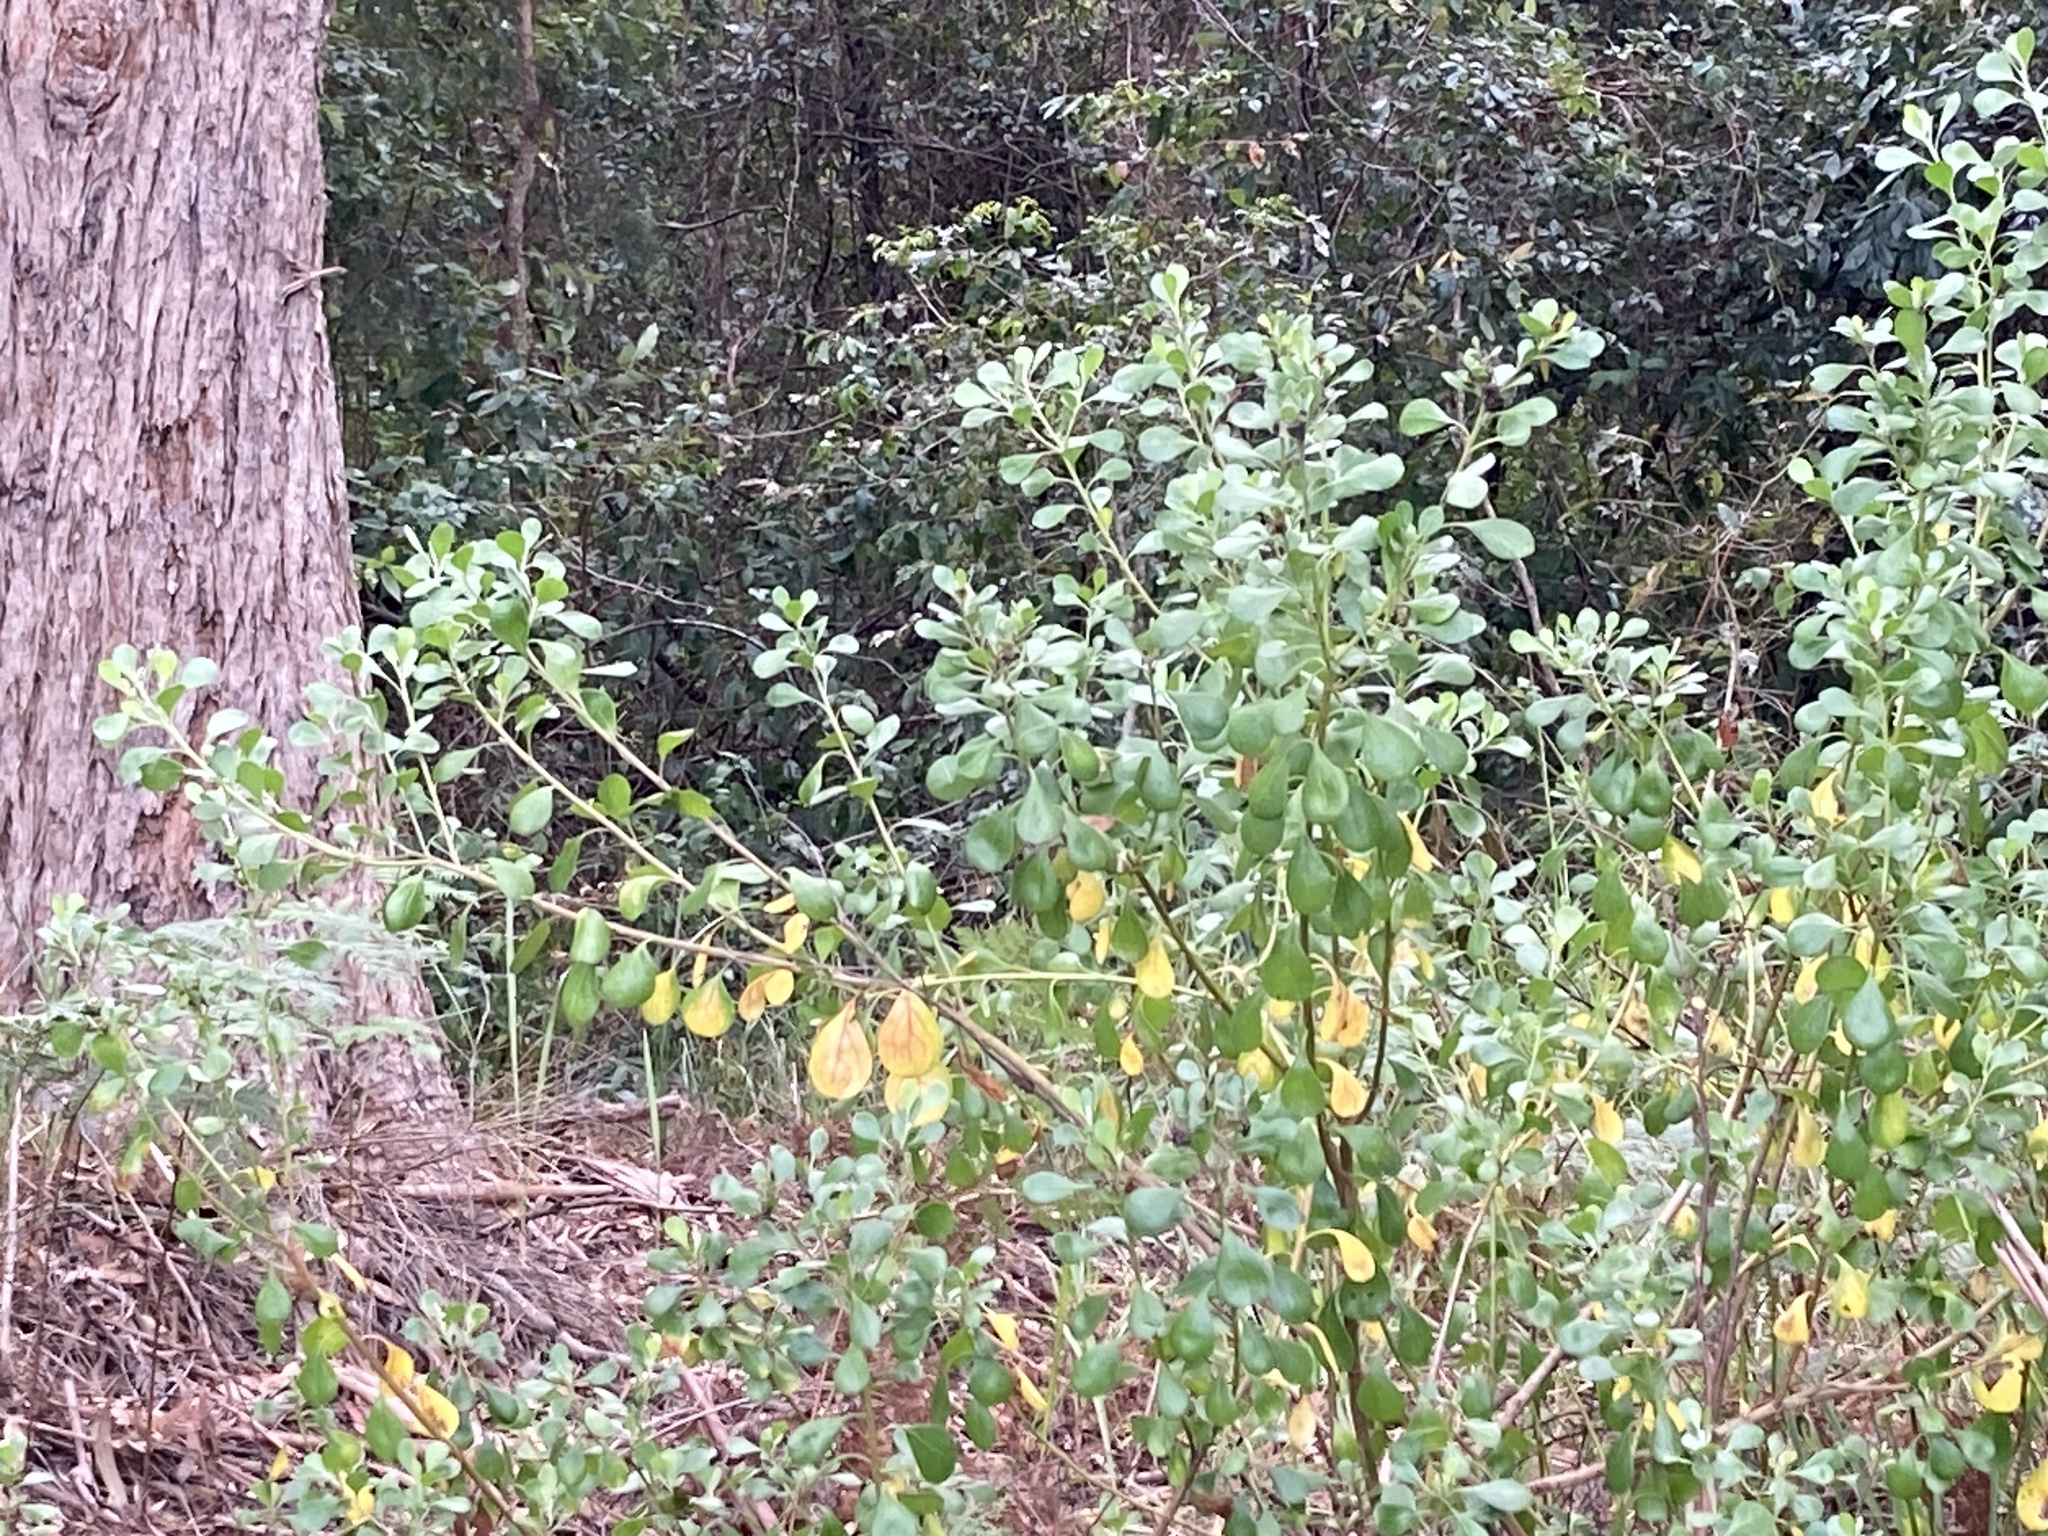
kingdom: Plantae
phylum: Tracheophyta
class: Magnoliopsida
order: Asterales
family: Asteraceae
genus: Osteospermum
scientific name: Osteospermum moniliferum
